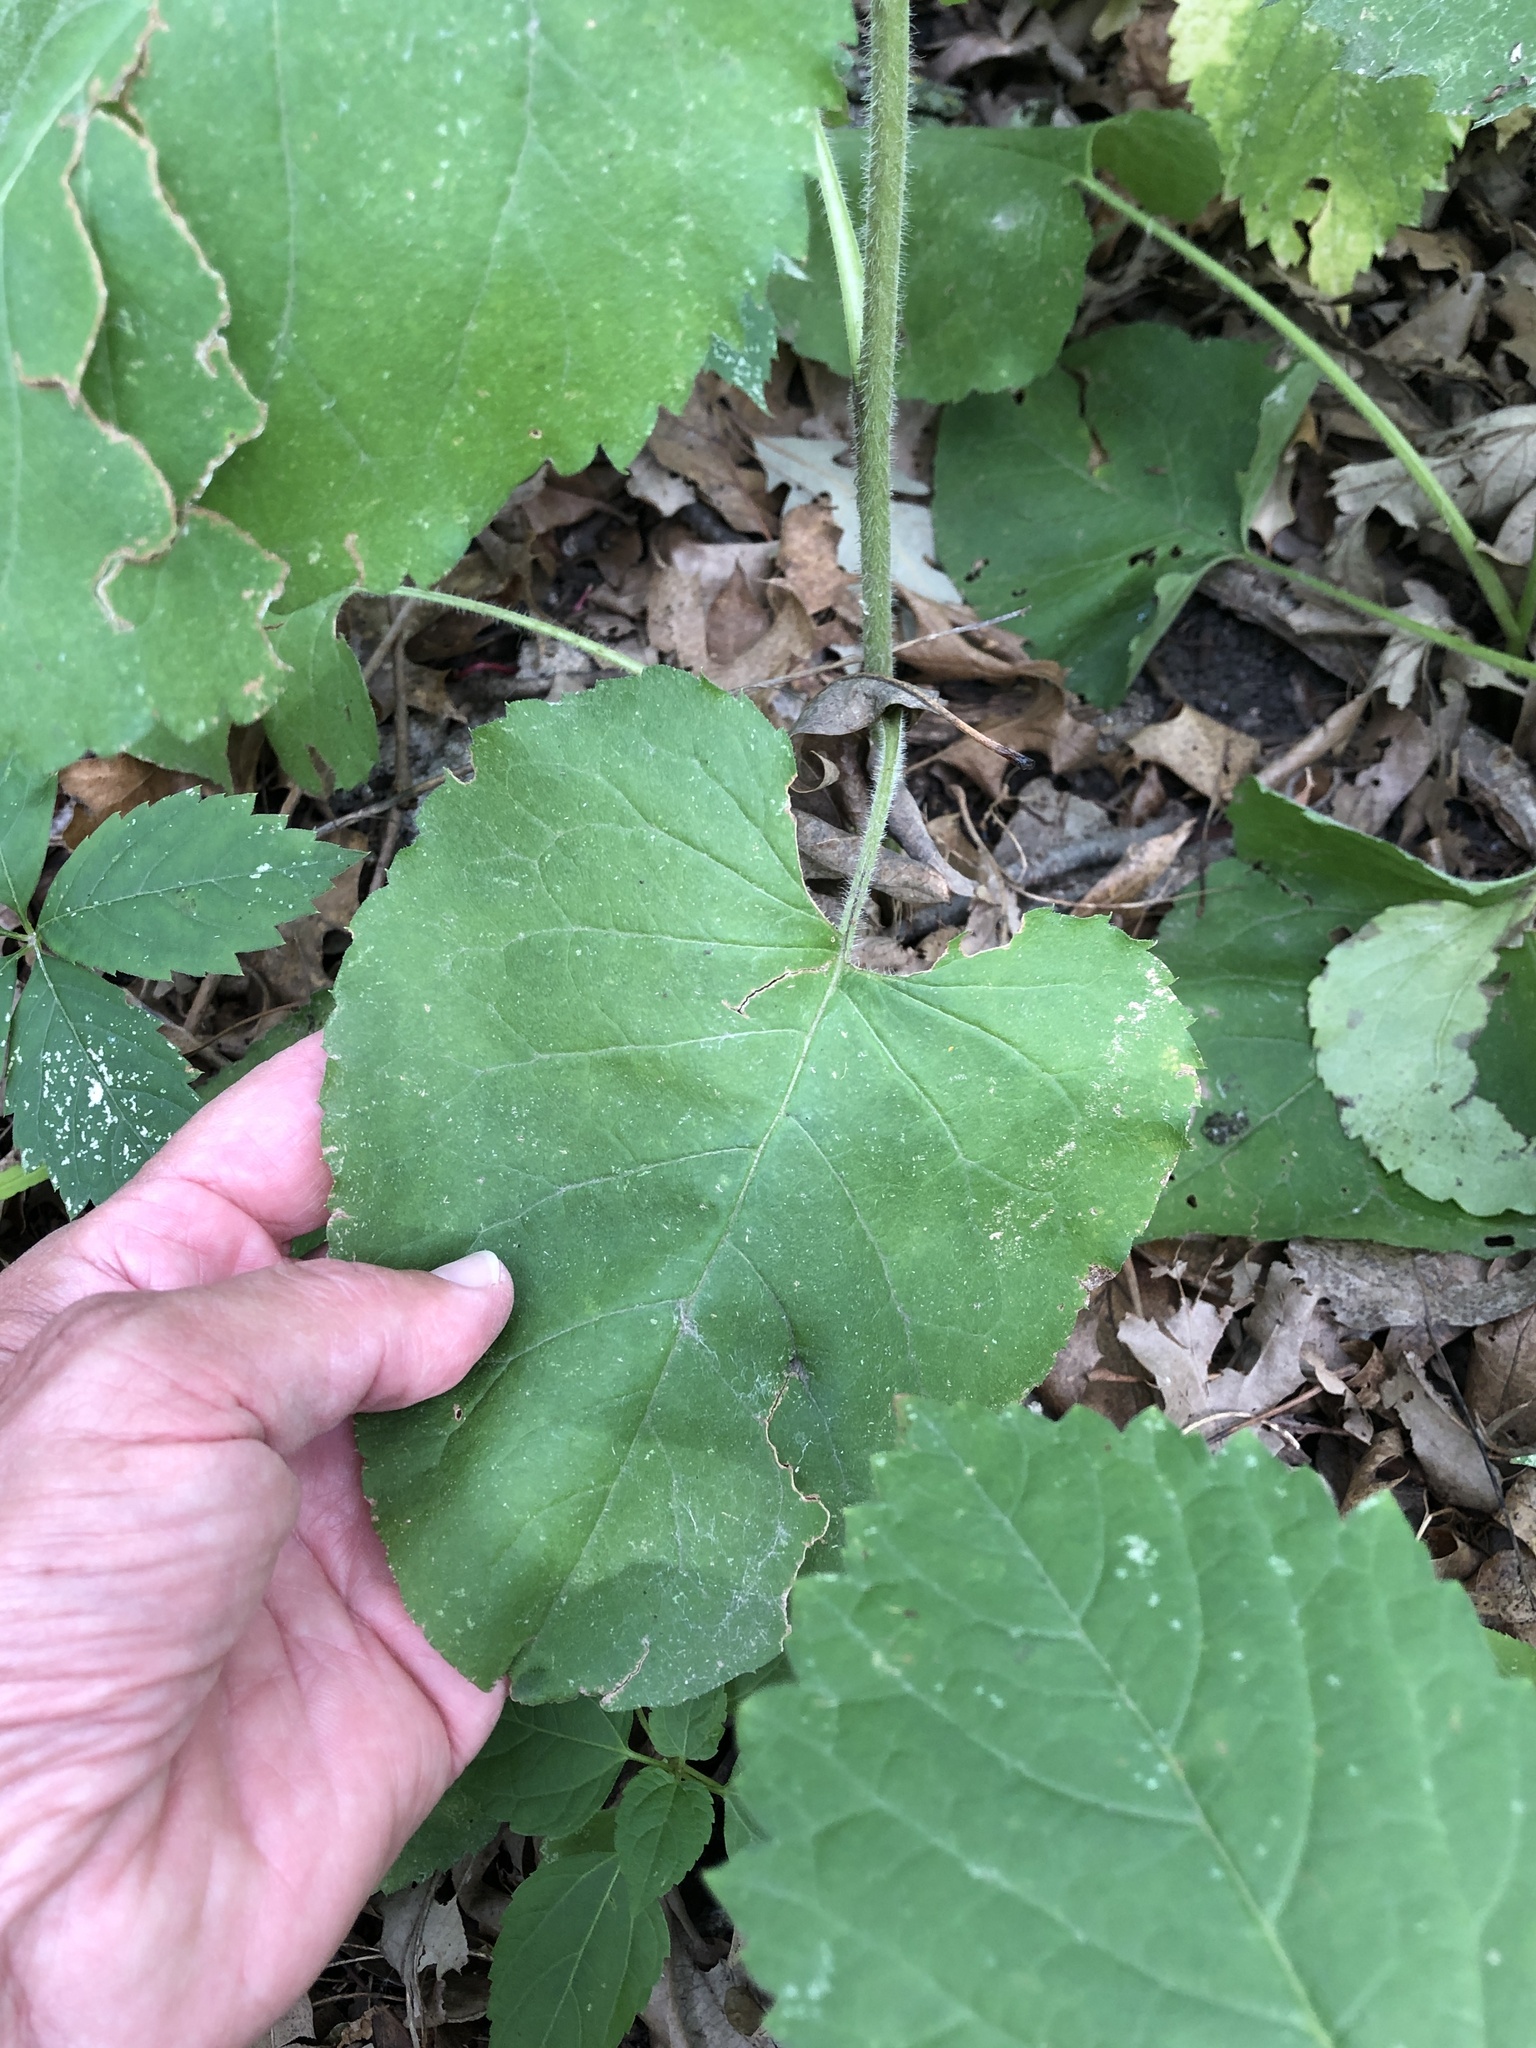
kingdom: Plantae
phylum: Tracheophyta
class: Magnoliopsida
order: Asterales
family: Asteraceae
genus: Eurybia
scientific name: Eurybia macrophylla
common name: Big-leaved aster
